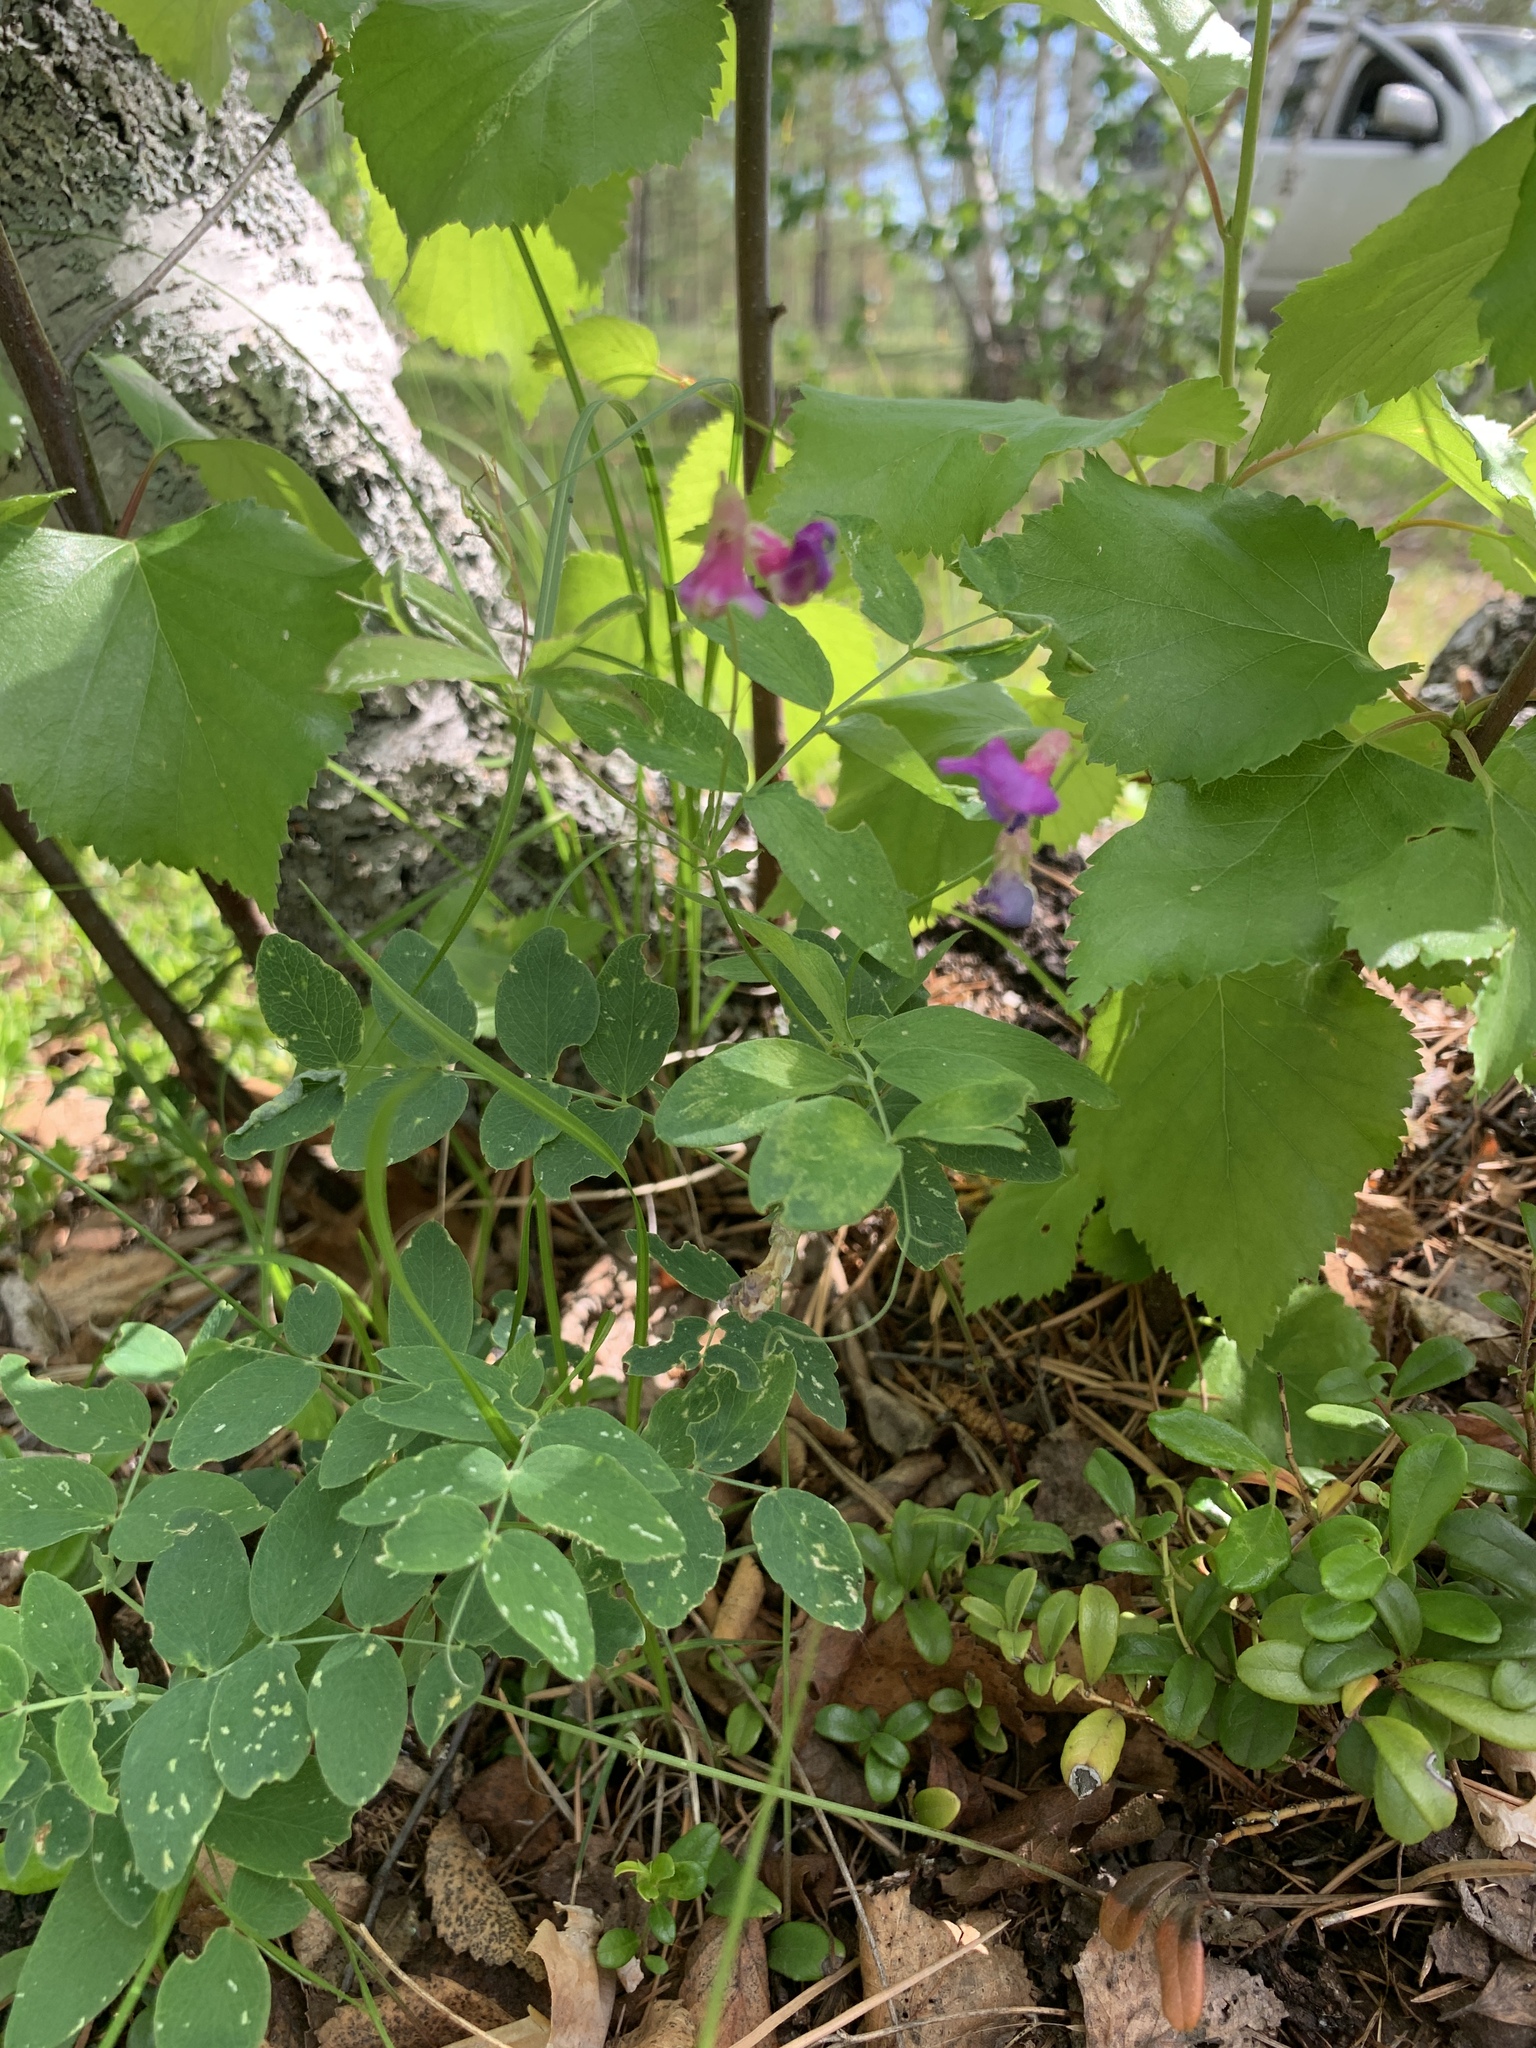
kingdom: Plantae
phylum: Tracheophyta
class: Magnoliopsida
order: Fabales
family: Fabaceae
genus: Lathyrus
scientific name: Lathyrus humilis
